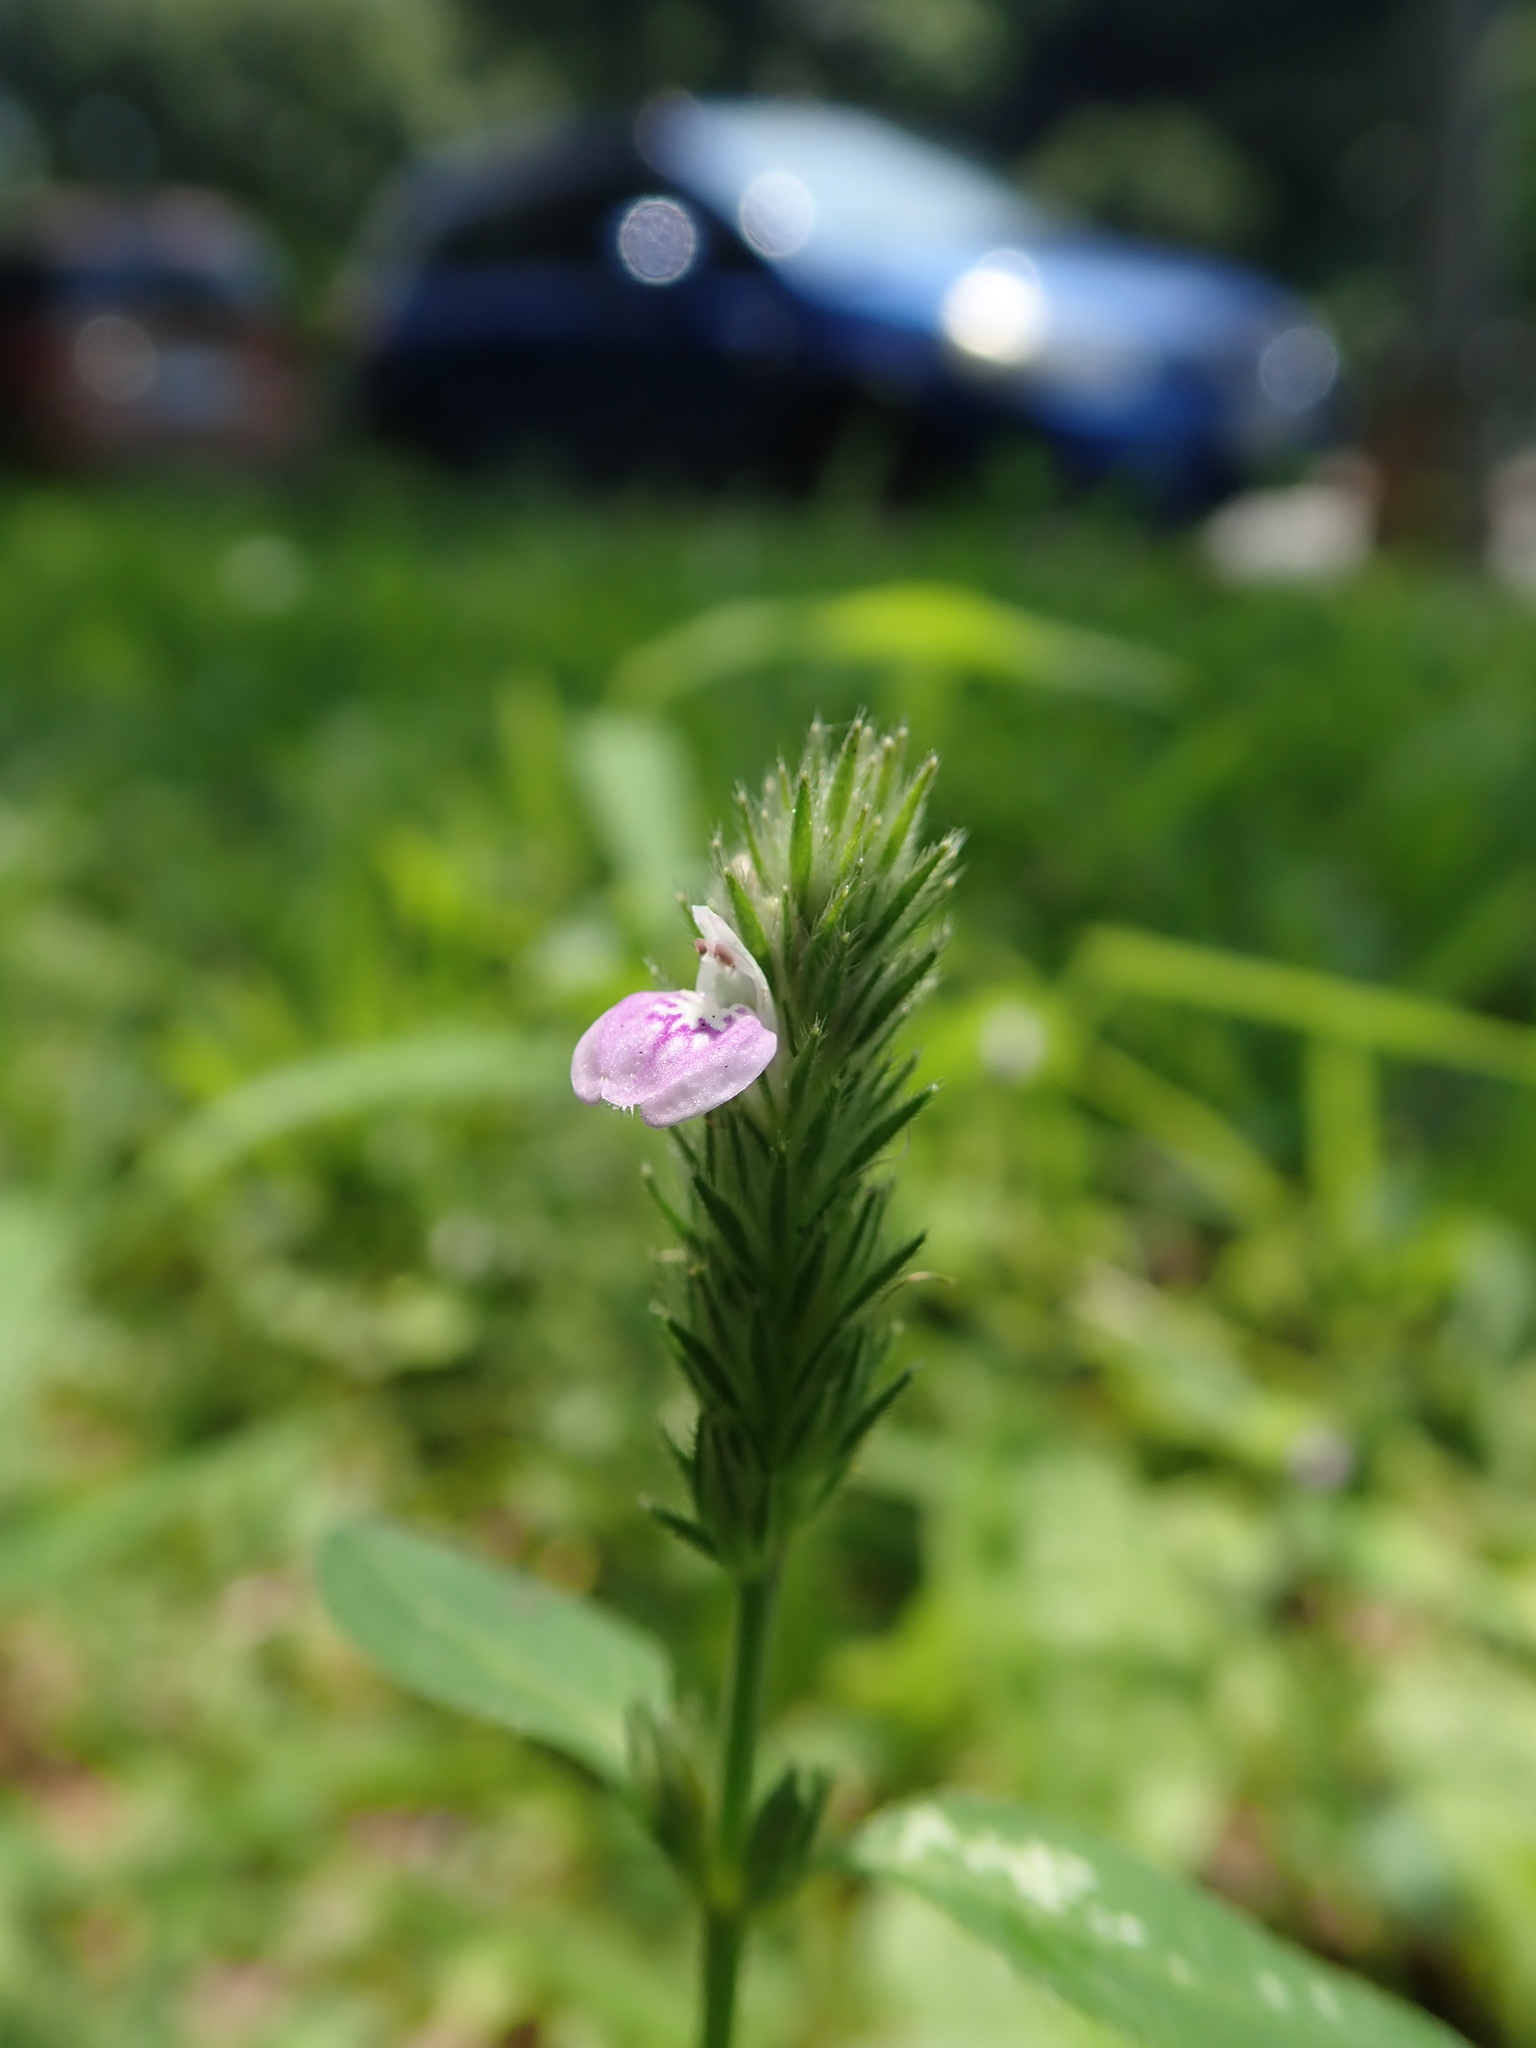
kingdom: Plantae
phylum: Tracheophyta
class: Magnoliopsida
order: Lamiales
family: Acanthaceae
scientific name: Acanthaceae
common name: Acanthaceae
